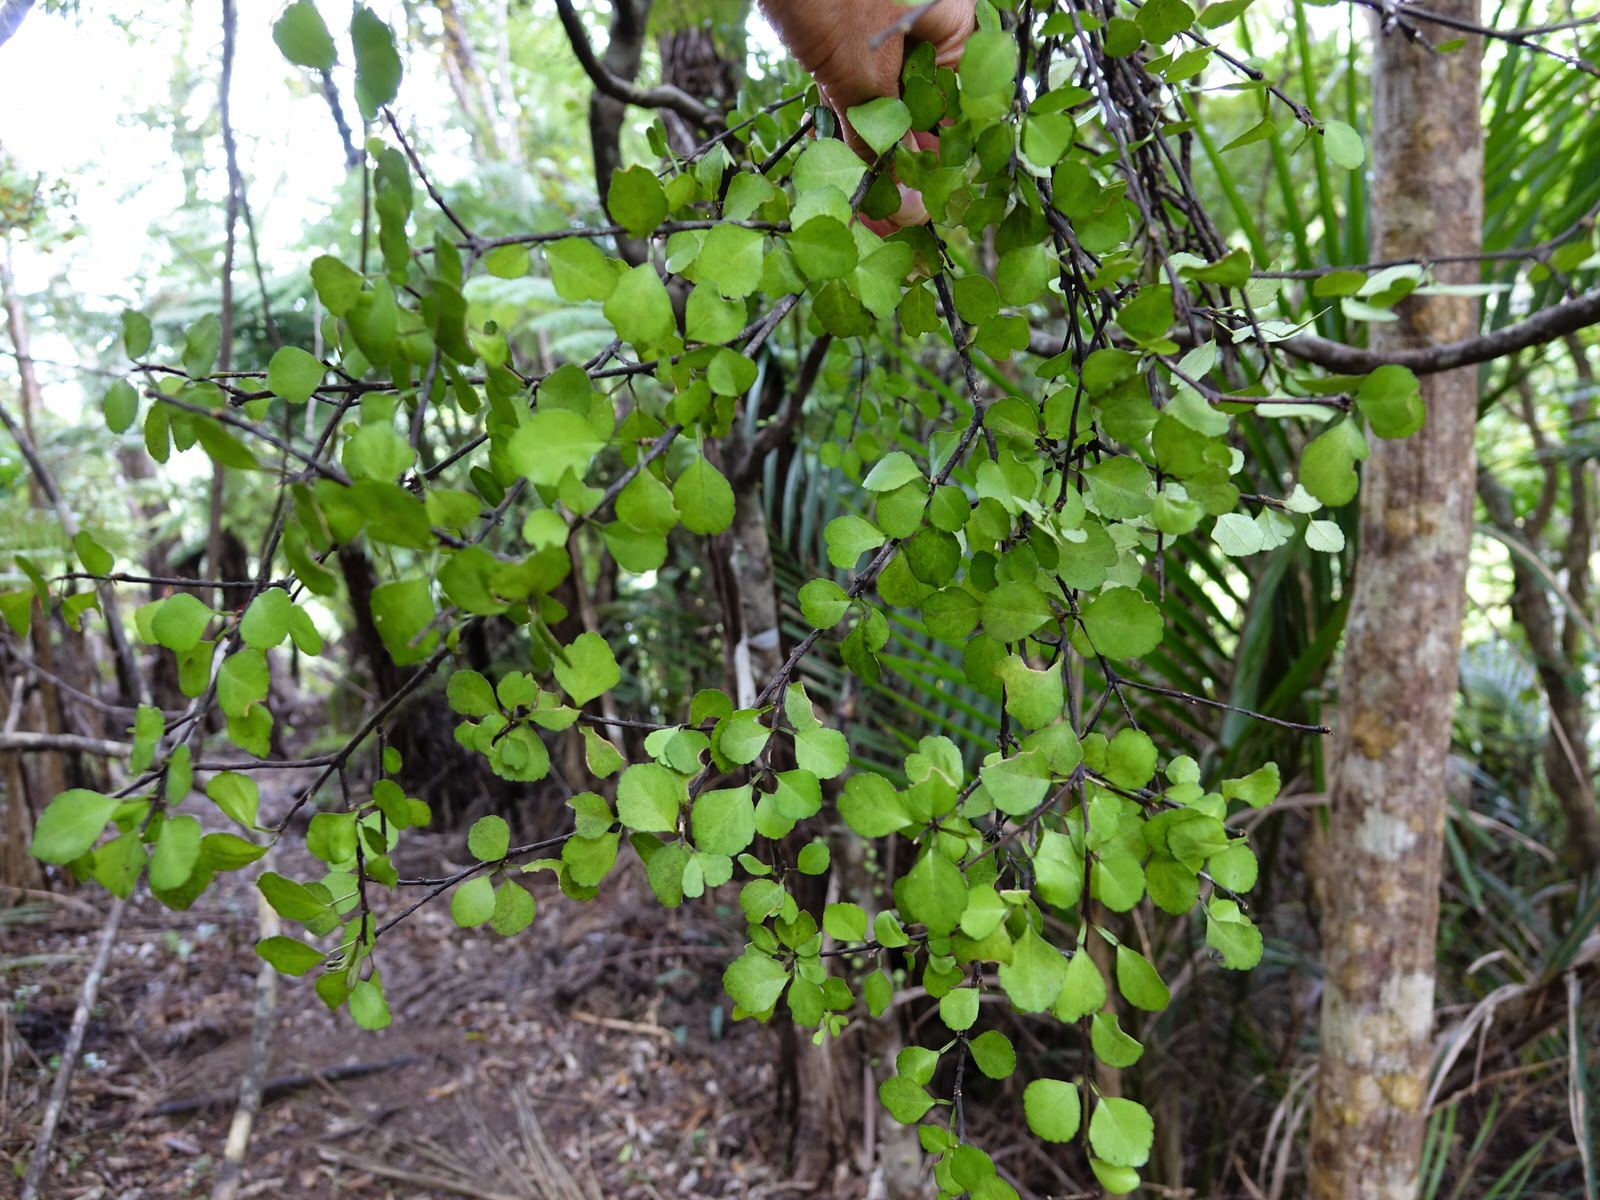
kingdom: Plantae
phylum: Tracheophyta
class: Magnoliopsida
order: Sapindales
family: Rutaceae
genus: Melicope
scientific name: Melicope simplex
